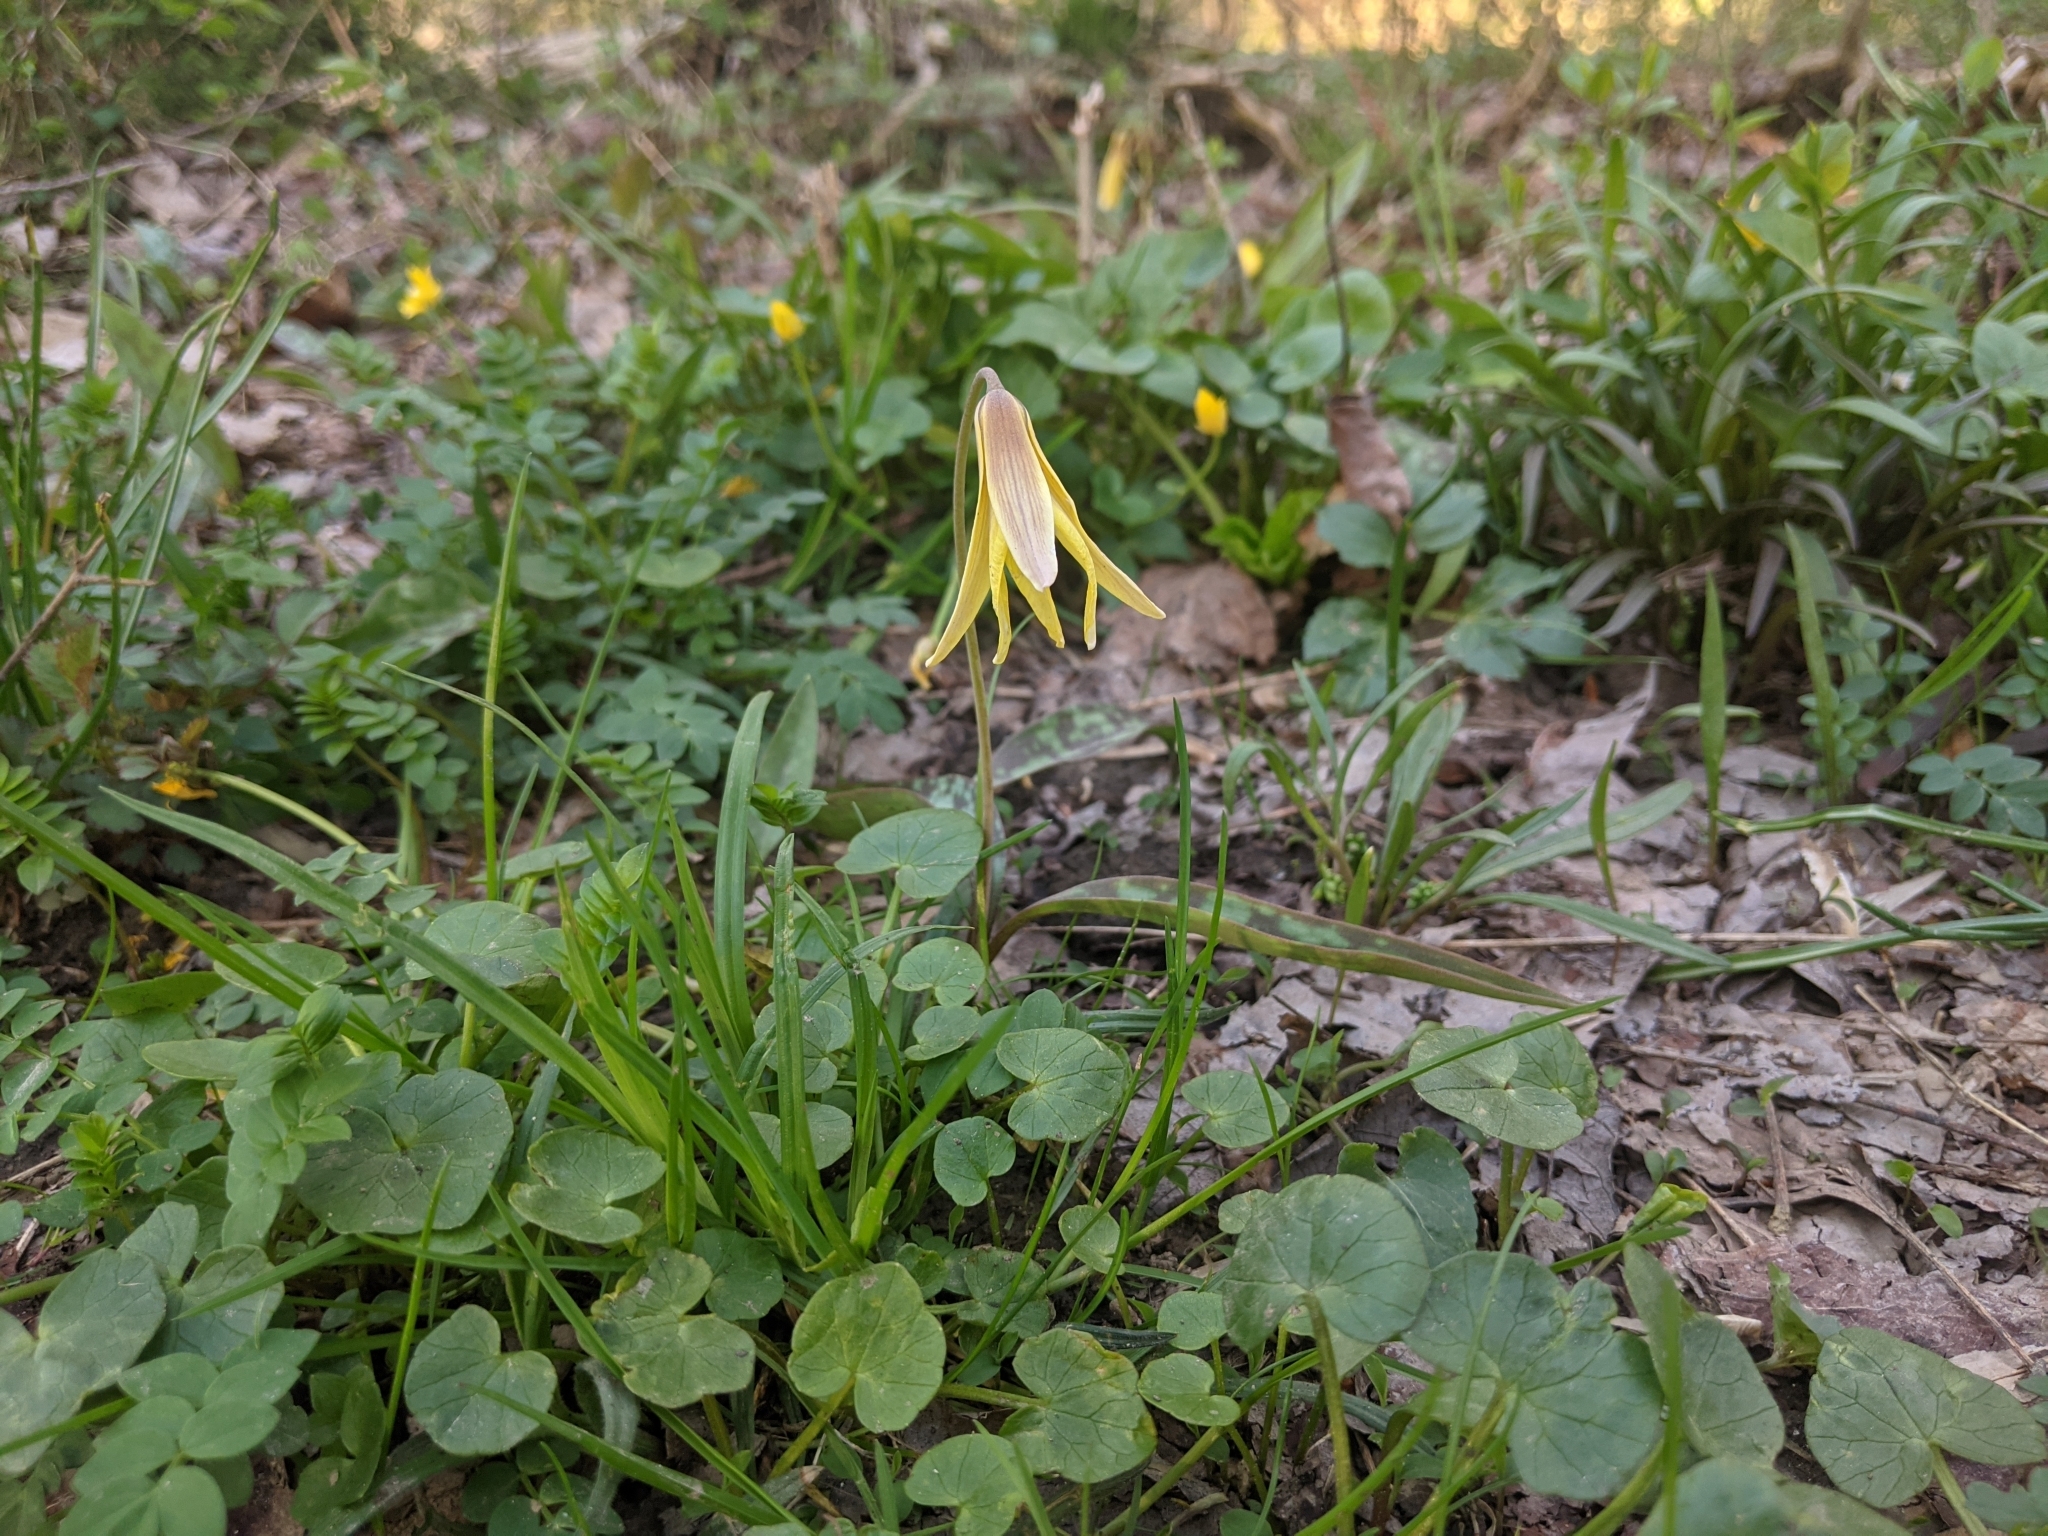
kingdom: Plantae
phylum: Tracheophyta
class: Liliopsida
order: Liliales
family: Liliaceae
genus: Erythronium
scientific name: Erythronium americanum
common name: Yellow adder's-tongue
